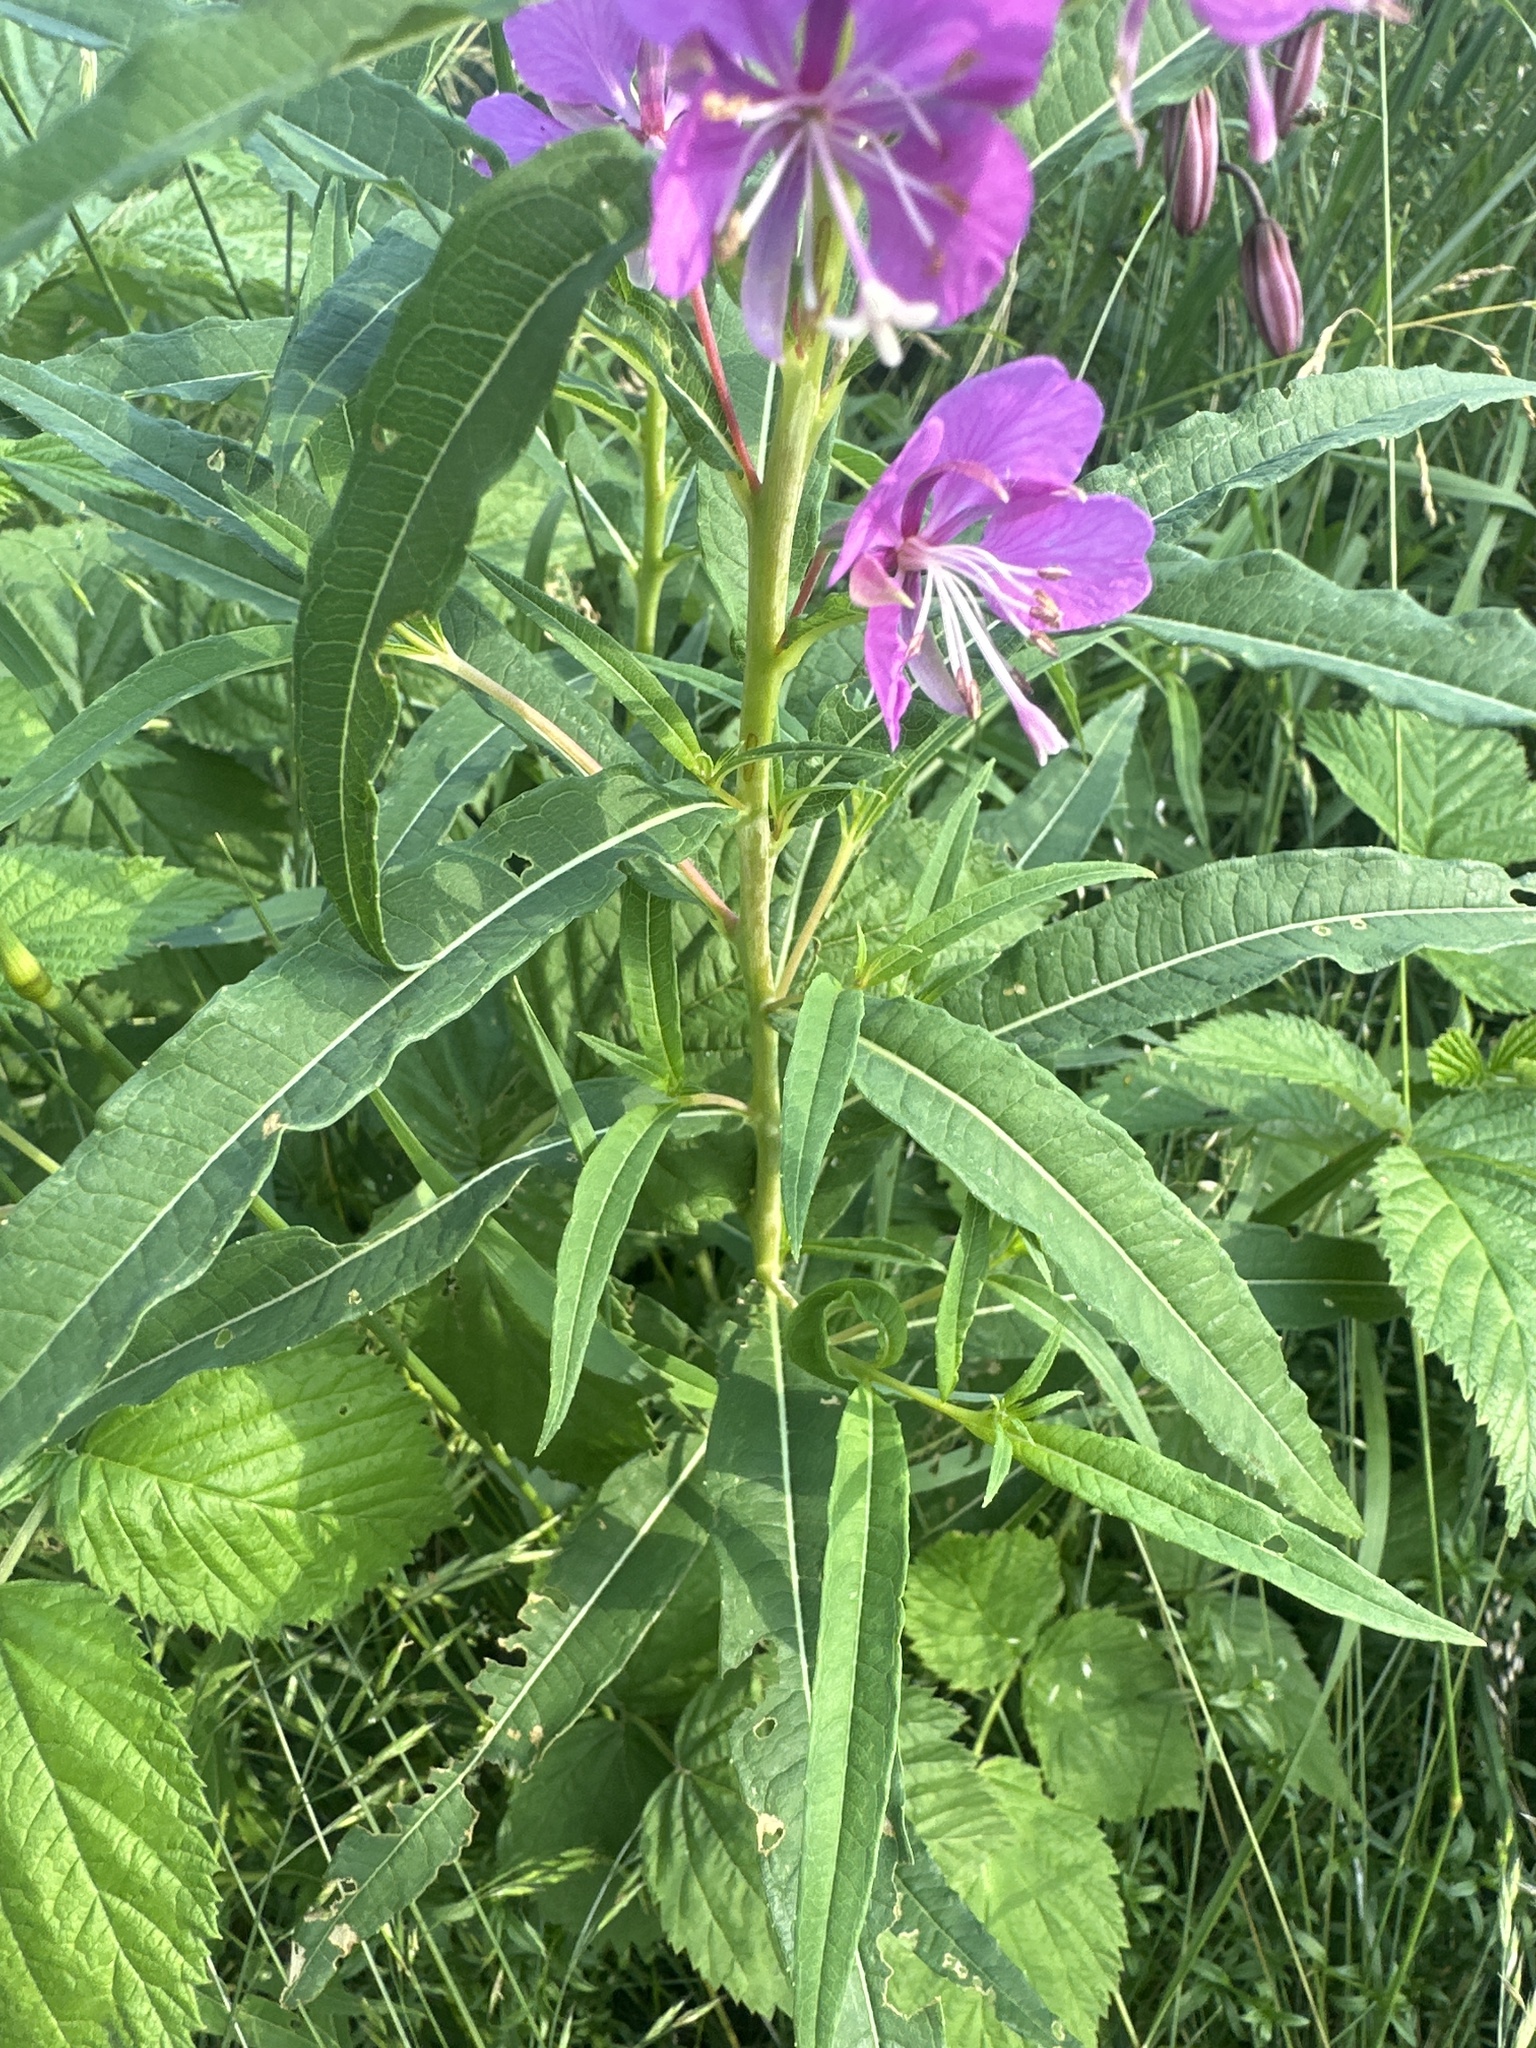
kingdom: Plantae
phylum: Tracheophyta
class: Magnoliopsida
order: Myrtales
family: Onagraceae
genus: Chamaenerion
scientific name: Chamaenerion angustifolium
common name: Fireweed
